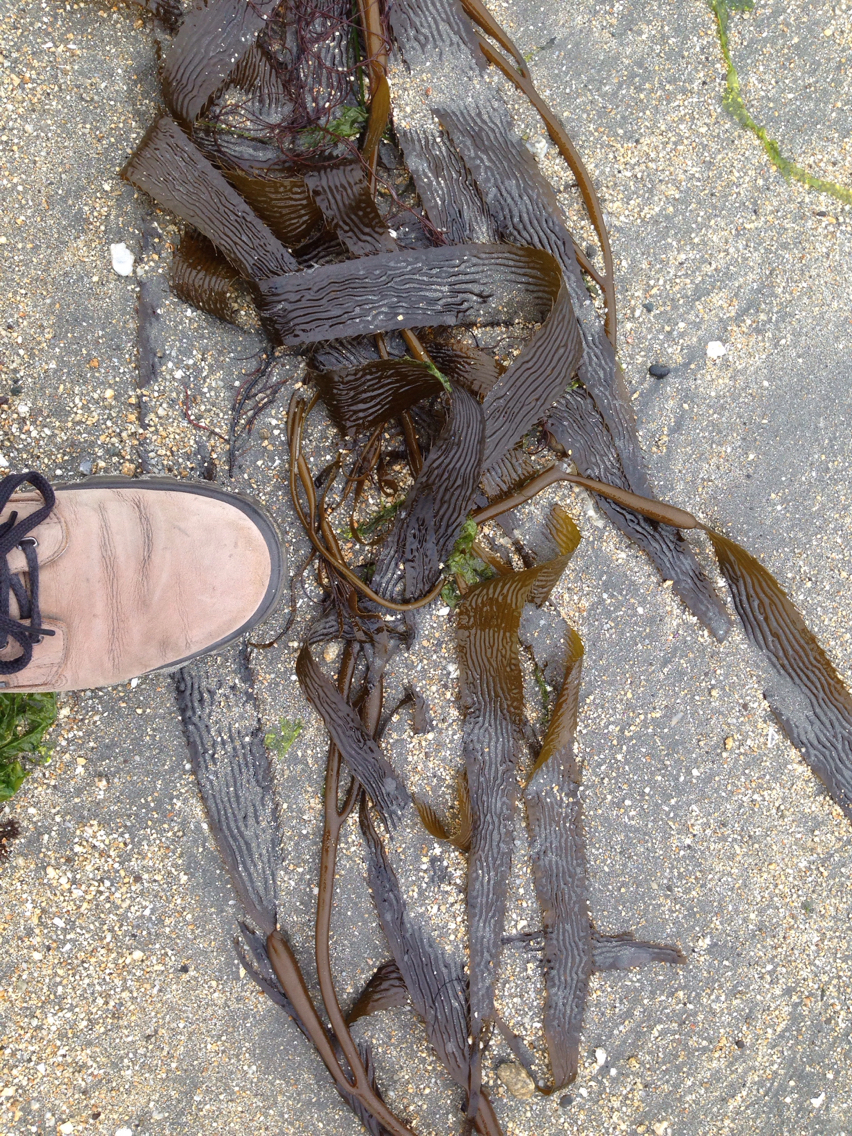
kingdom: Chromista
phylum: Ochrophyta
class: Phaeophyceae
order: Laminariales
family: Laminariaceae
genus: Macrocystis
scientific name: Macrocystis pyrifera
